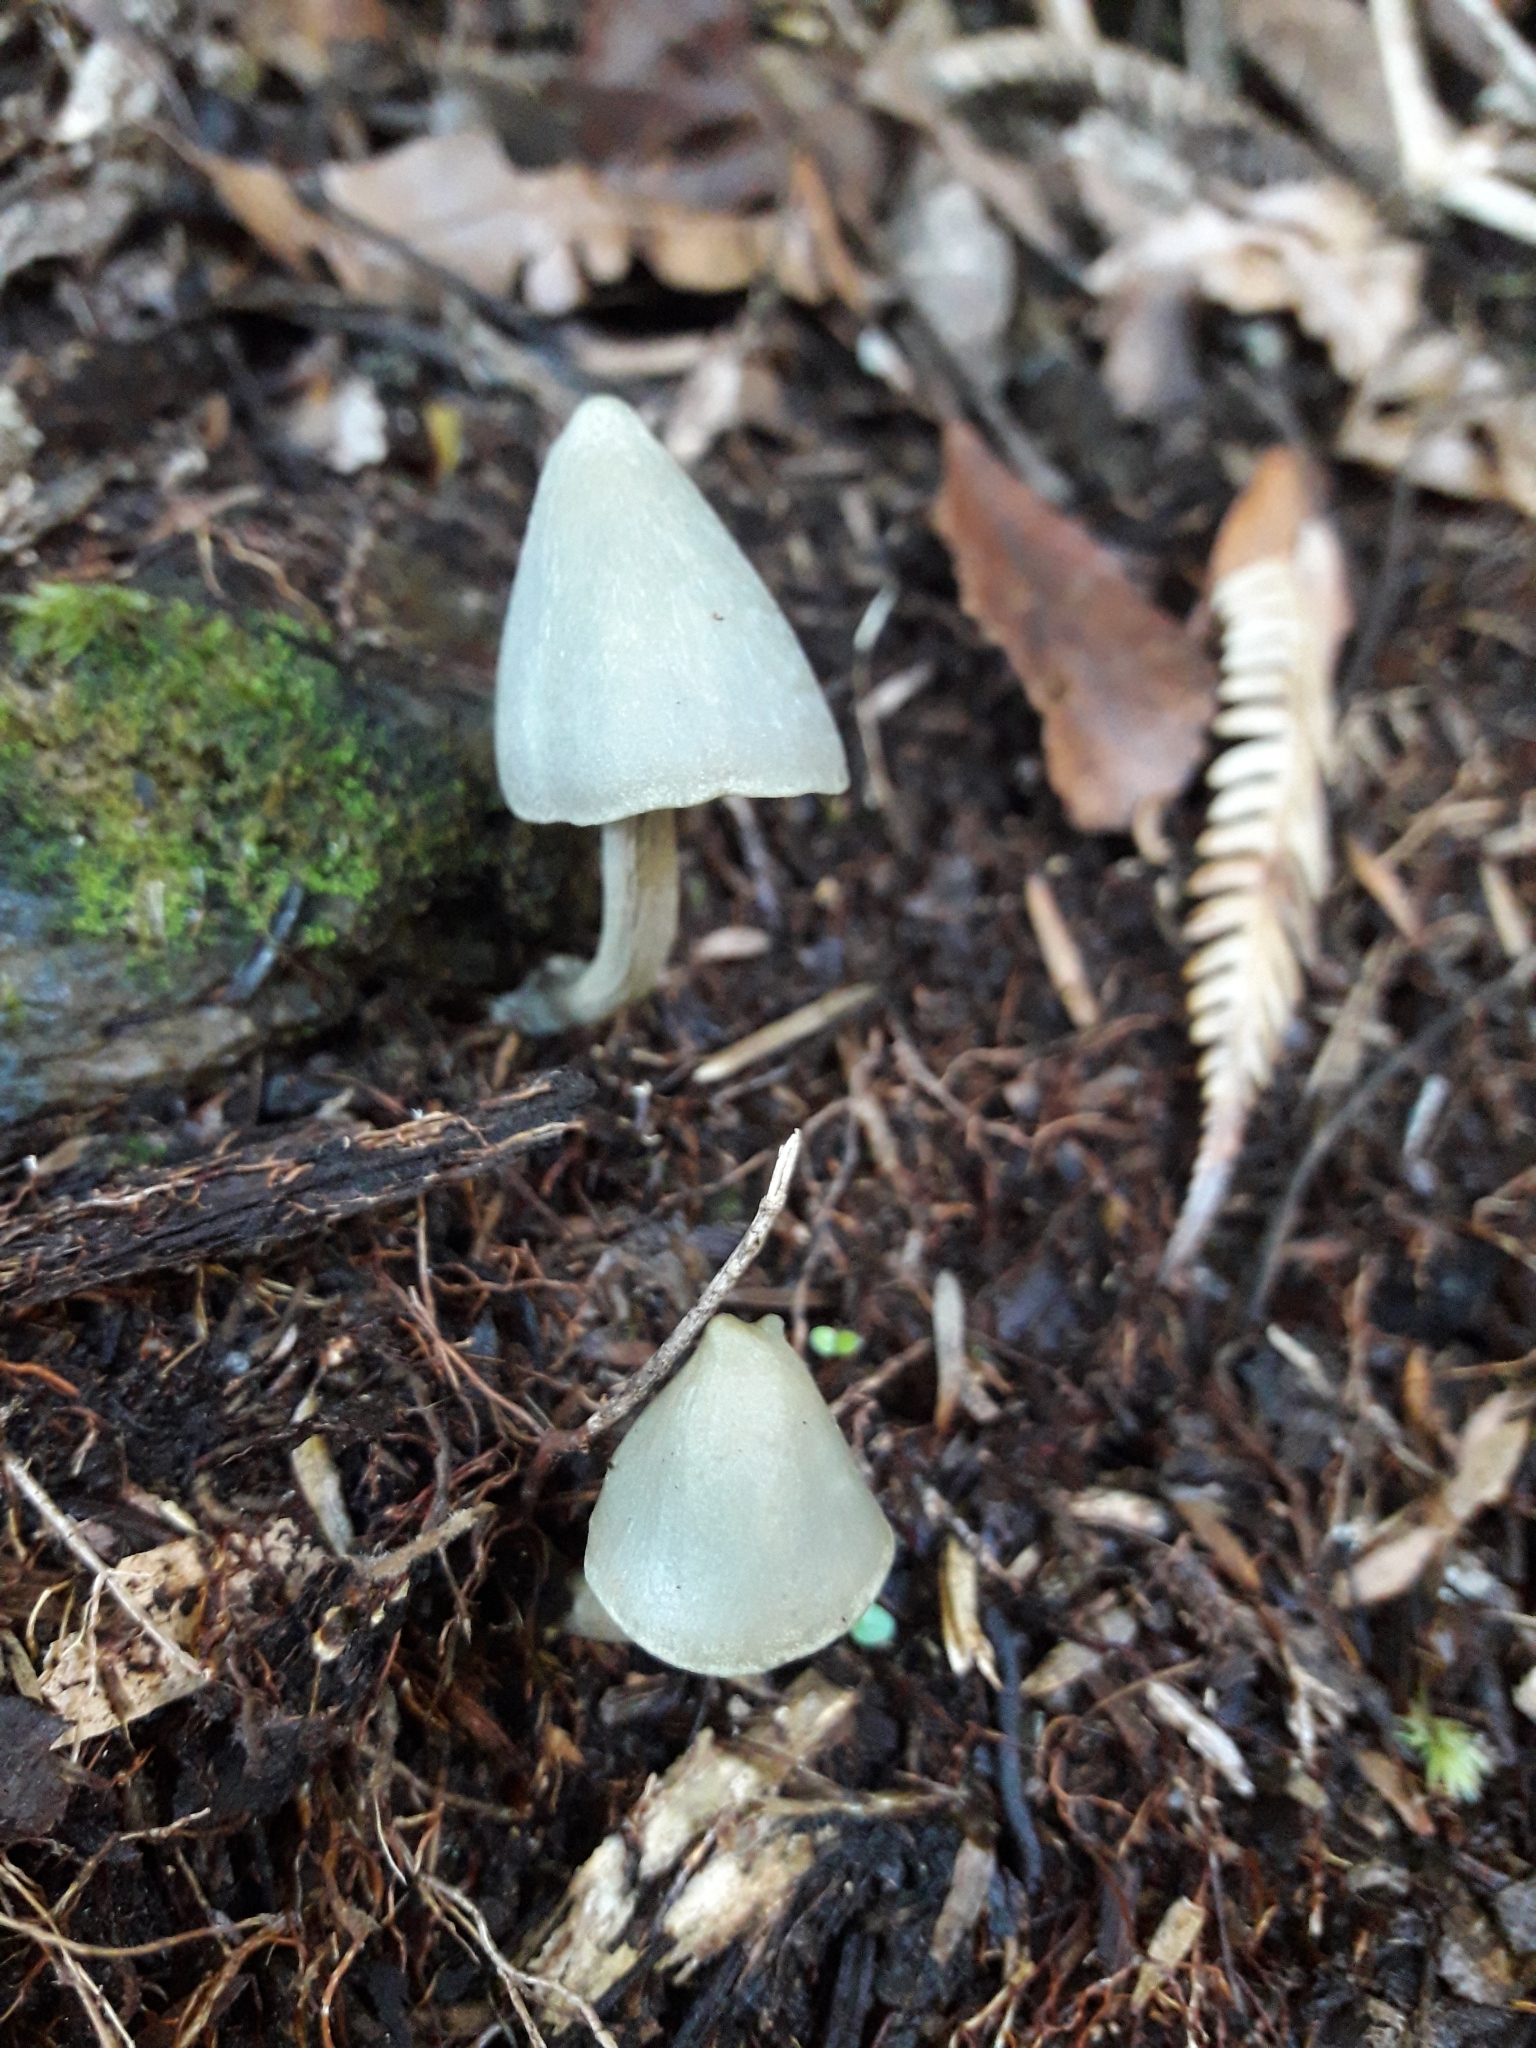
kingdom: Fungi
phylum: Basidiomycota
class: Agaricomycetes
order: Agaricales
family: Entolomataceae
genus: Entoloma
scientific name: Entoloma canoconicum
